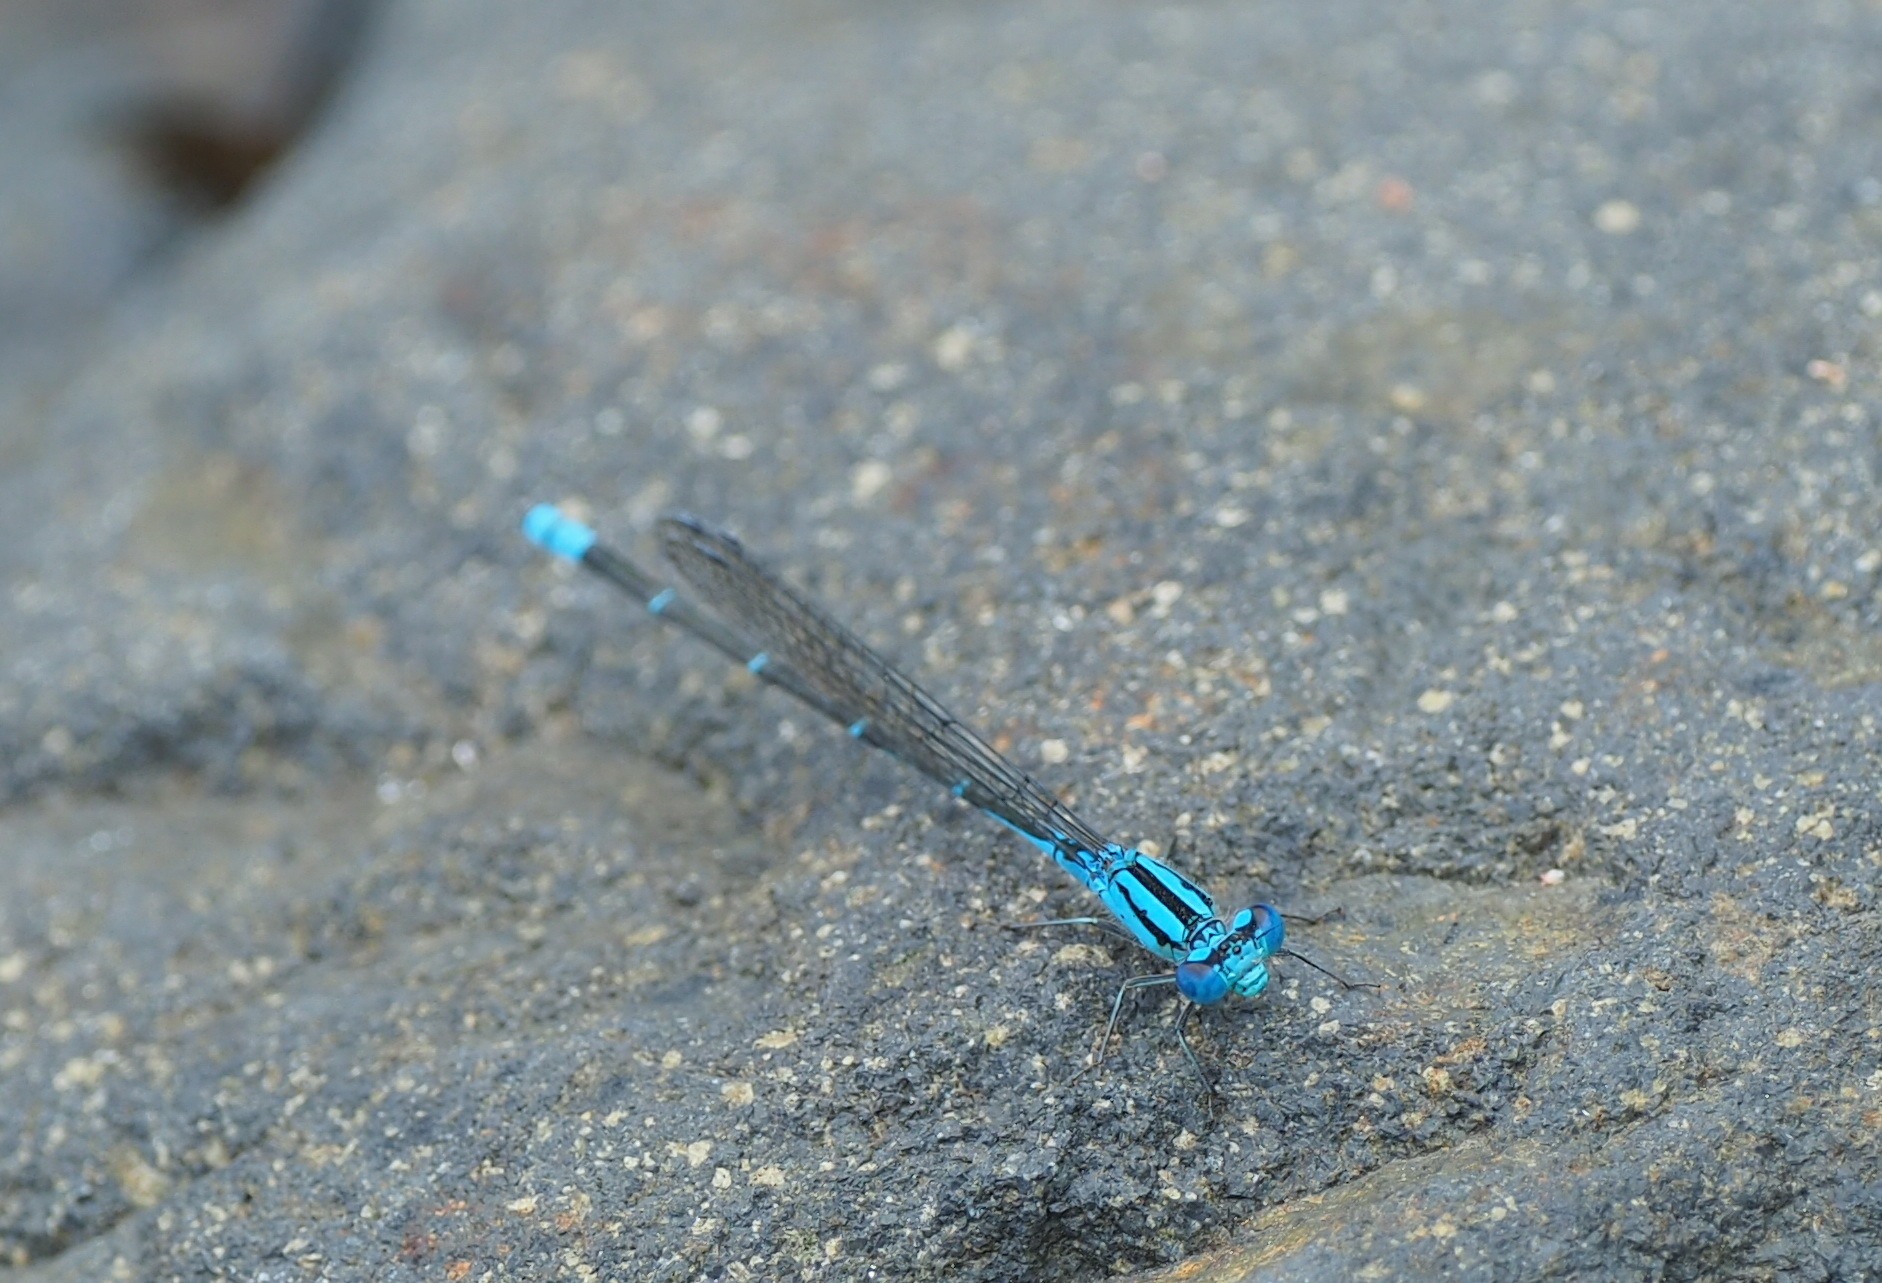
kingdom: Animalia
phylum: Arthropoda
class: Insecta
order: Odonata
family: Coenagrionidae
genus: Pseudagrion
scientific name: Pseudagrion microcephalum
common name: Blue riverdamsel
